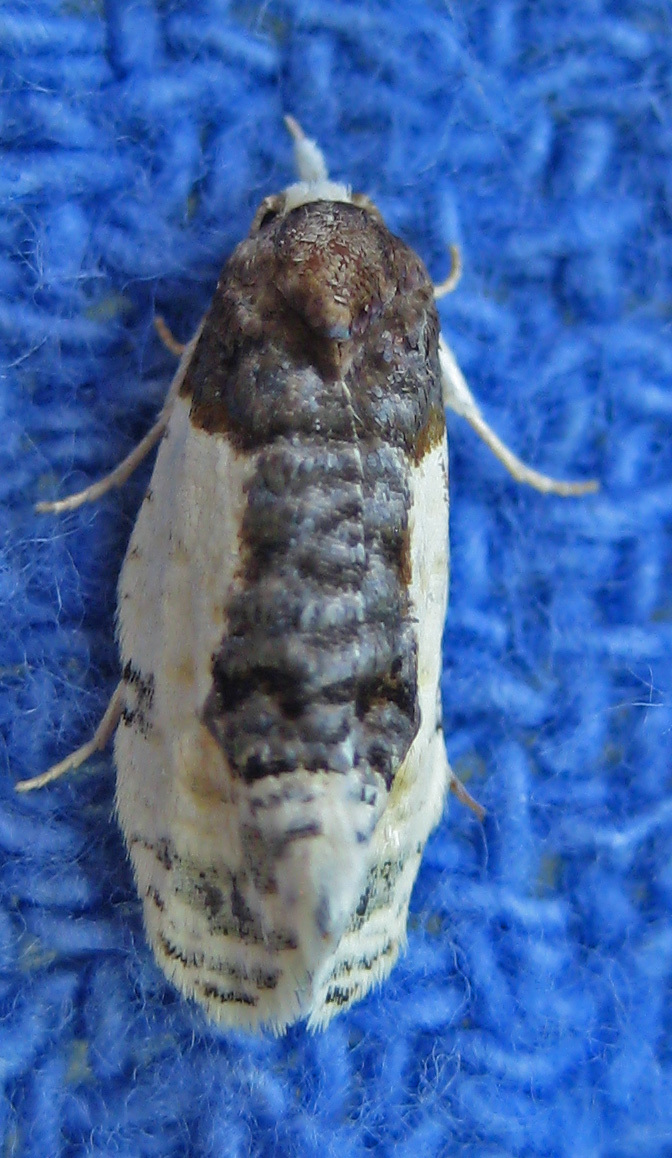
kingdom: Animalia
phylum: Arthropoda
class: Insecta
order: Lepidoptera
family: Tortricidae
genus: Henricus
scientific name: Henricus edwardsiana
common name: Contrasting henricus moth
